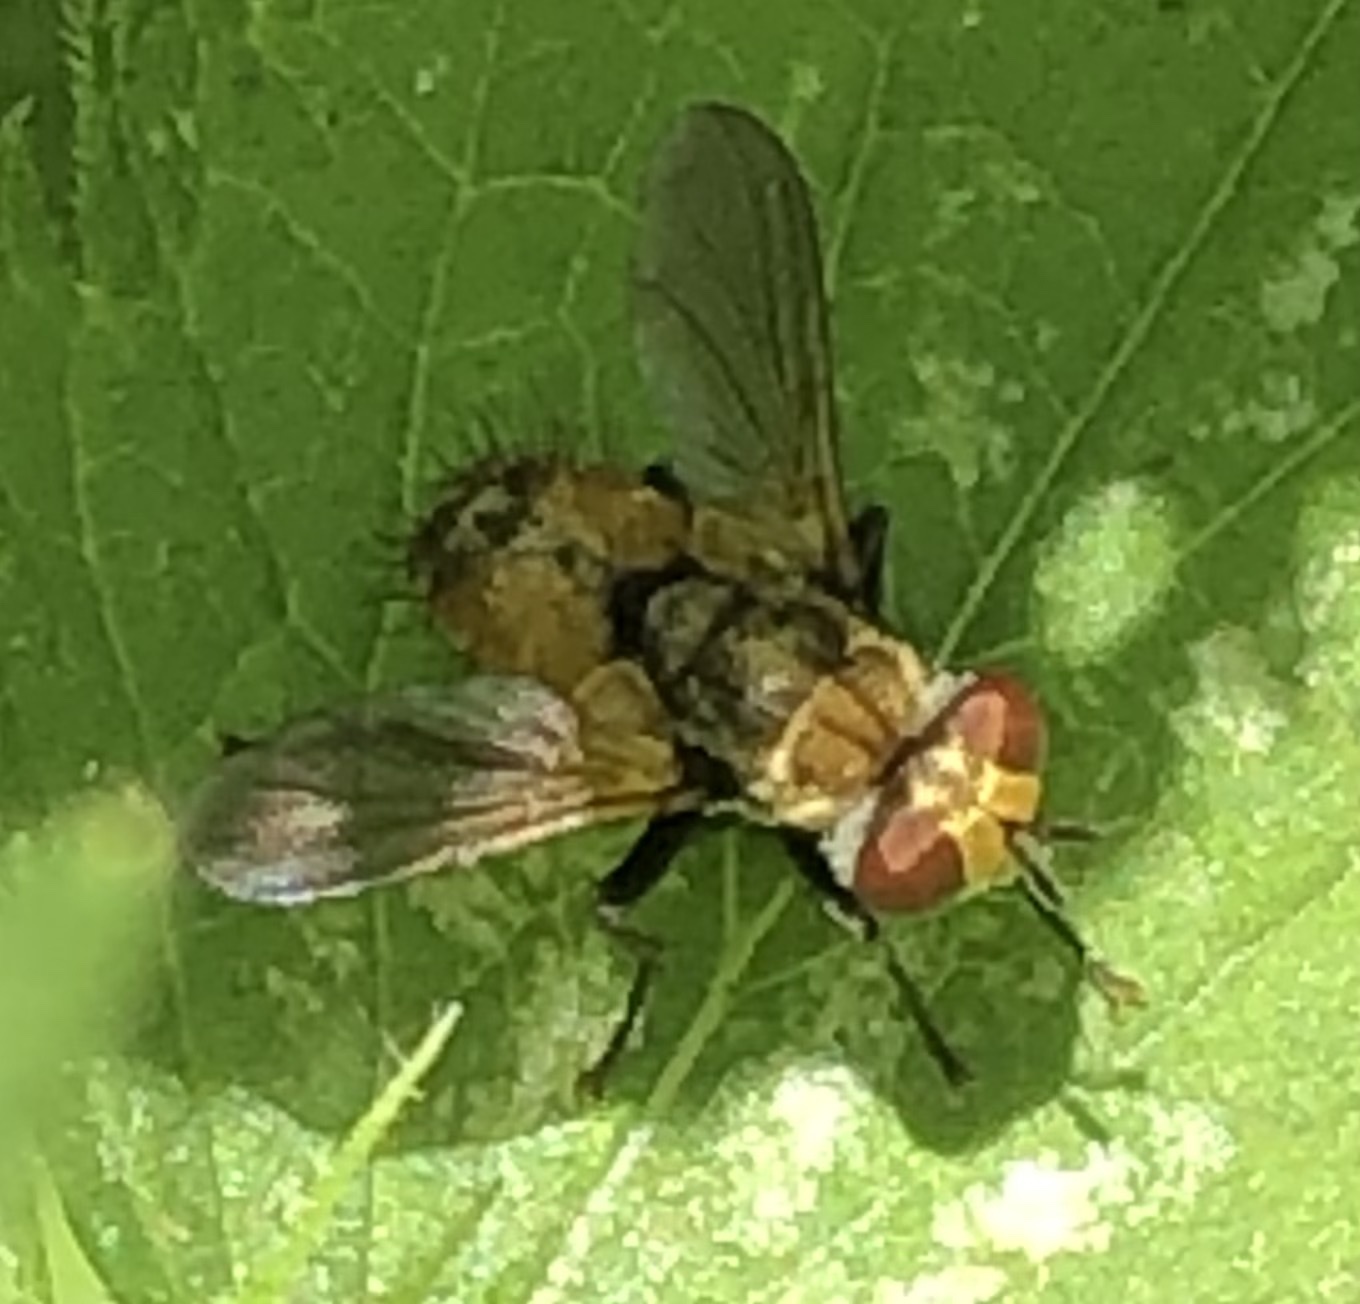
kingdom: Animalia
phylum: Arthropoda
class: Insecta
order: Diptera
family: Tachinidae
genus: Eliozeta
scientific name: Eliozeta pellucens
